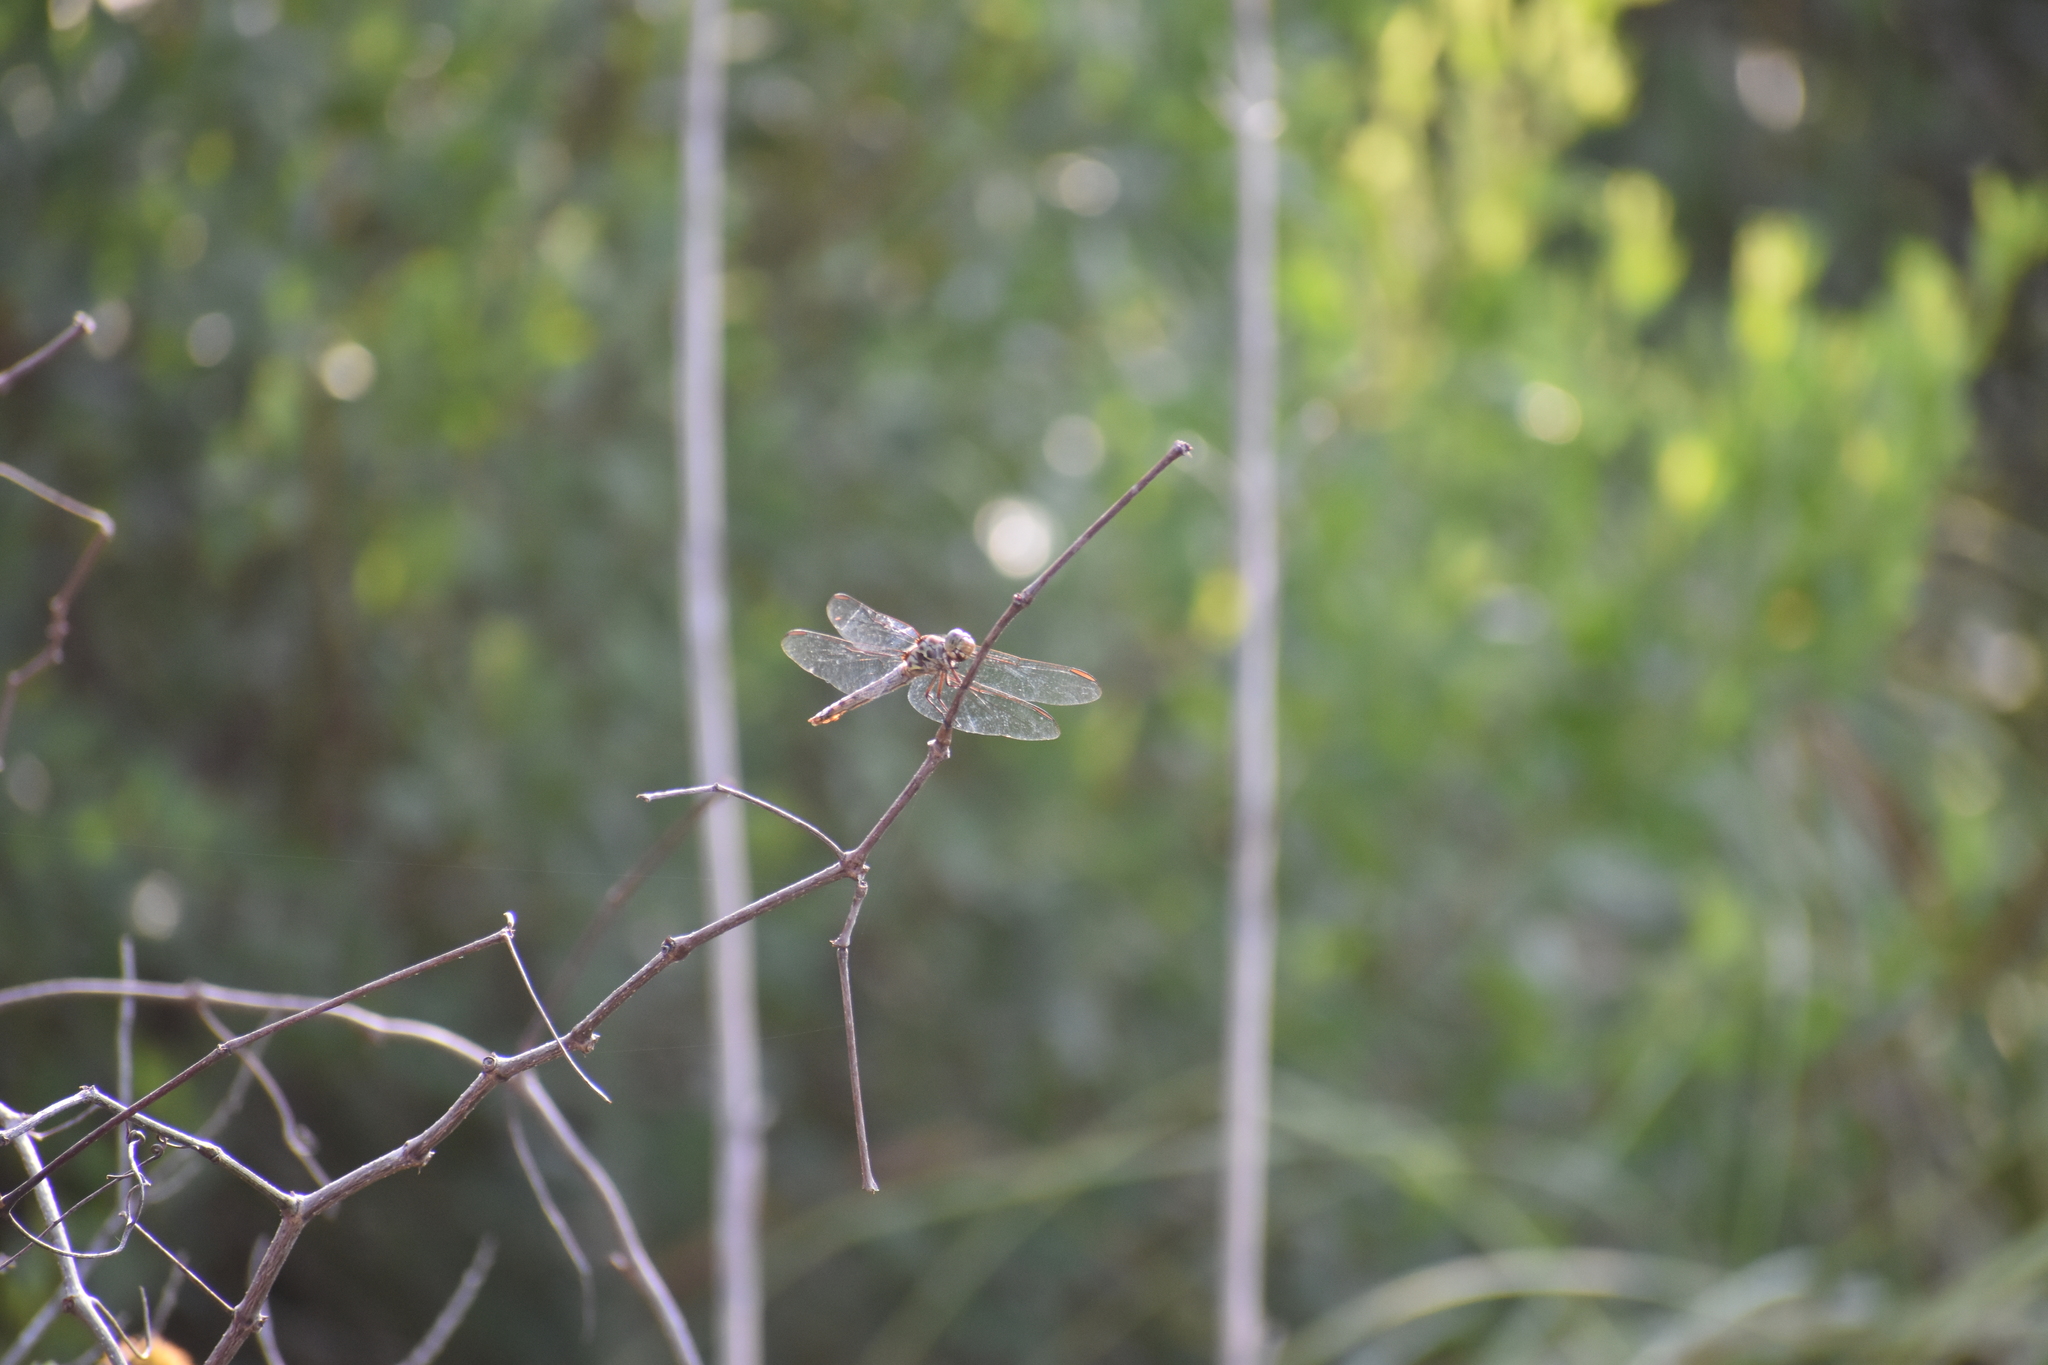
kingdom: Animalia
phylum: Arthropoda
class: Insecta
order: Odonata
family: Libellulidae
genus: Orthemis
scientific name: Orthemis ferruginea
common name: Roseate skimmer
